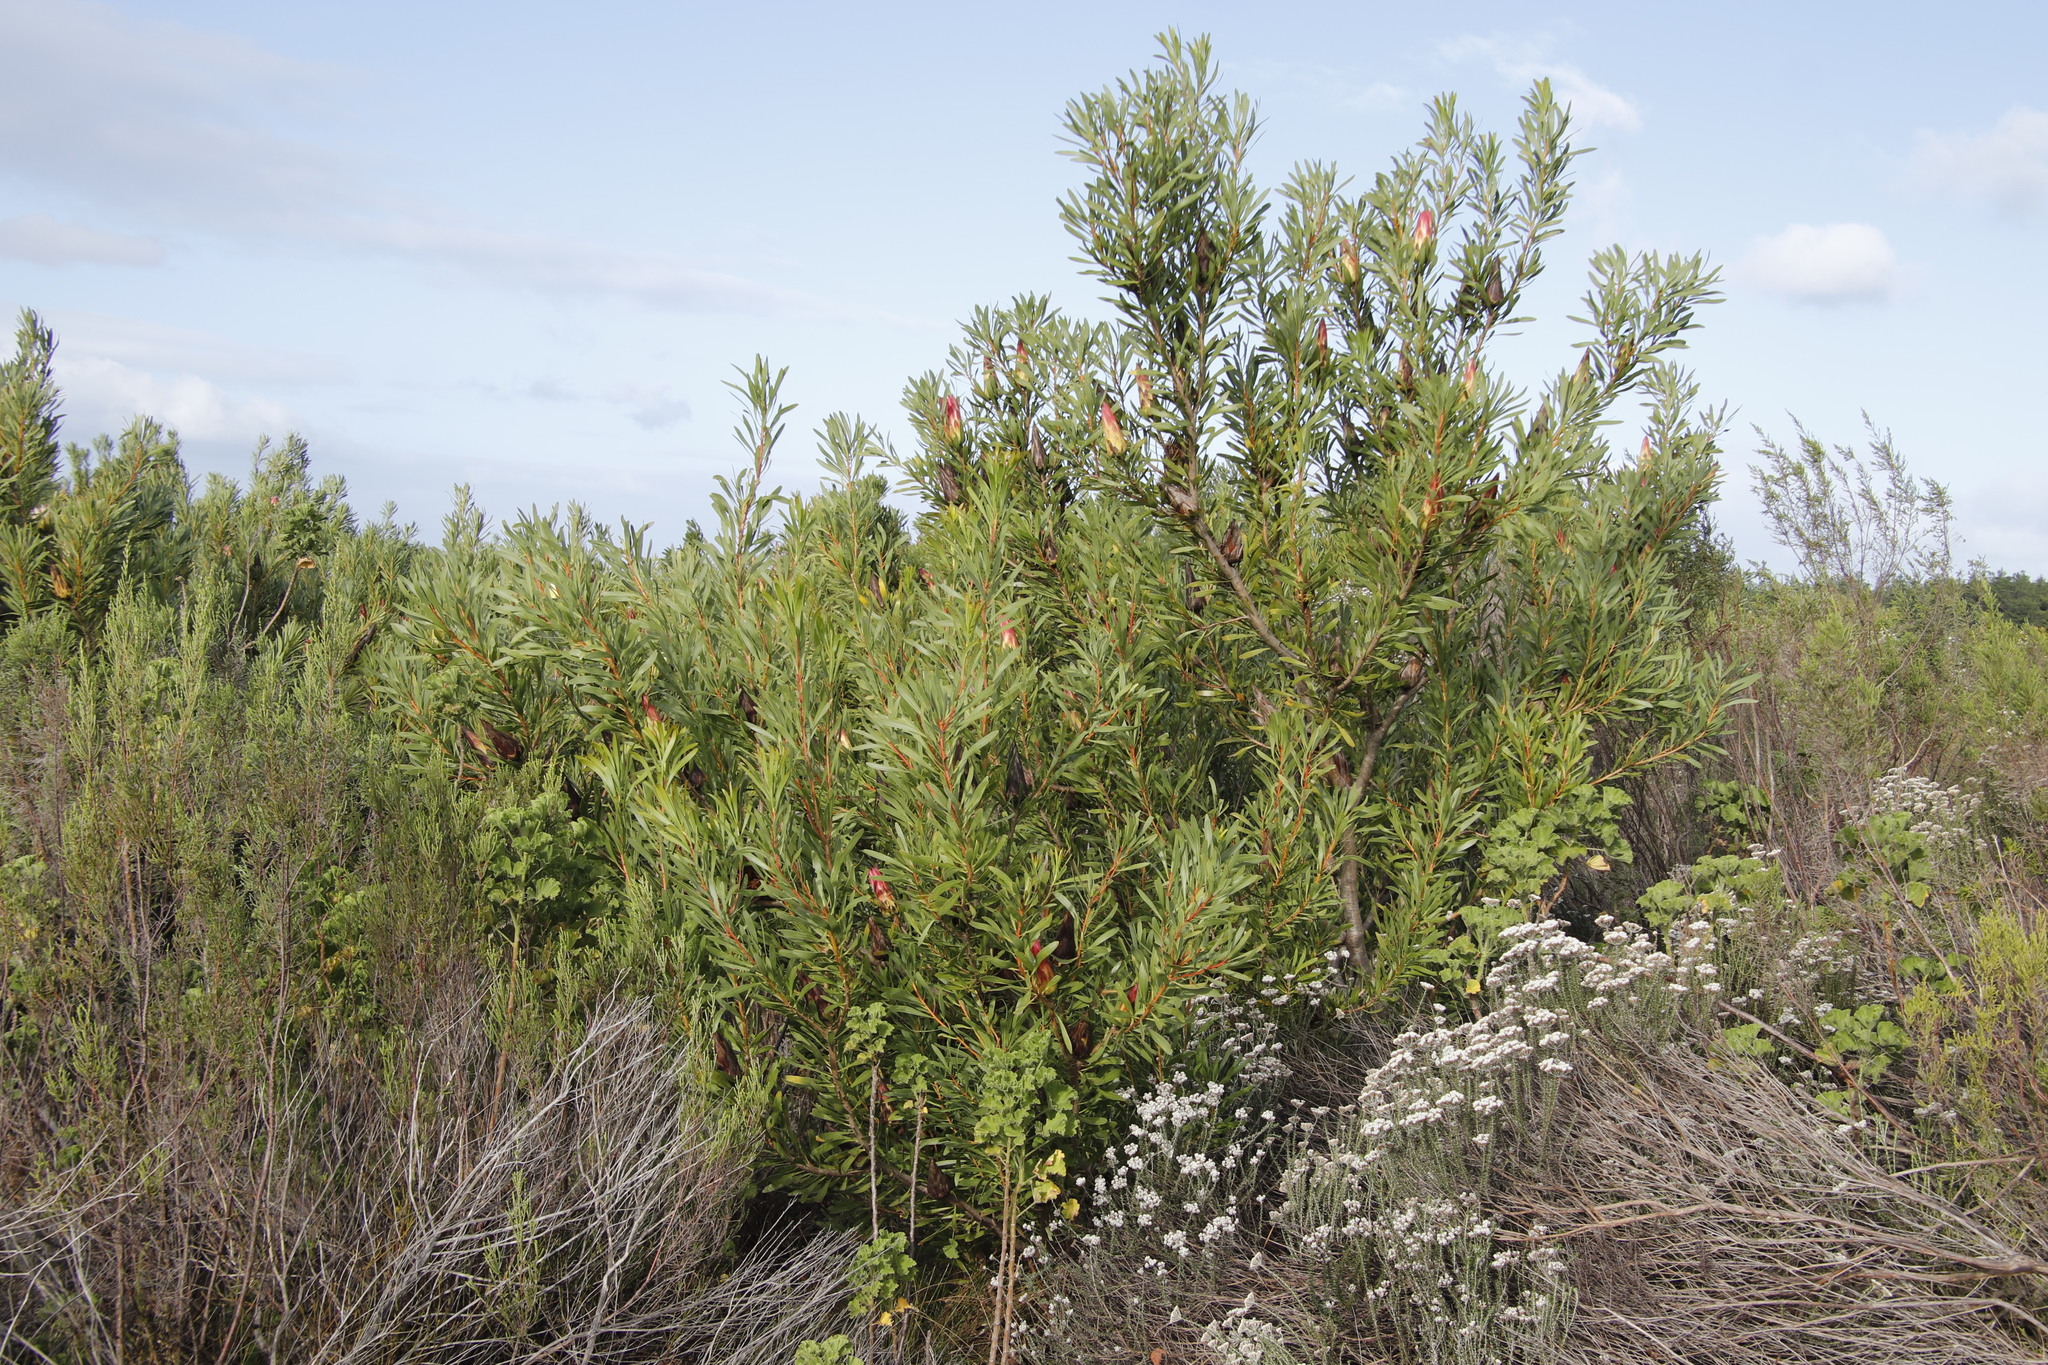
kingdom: Plantae
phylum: Tracheophyta
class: Magnoliopsida
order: Proteales
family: Proteaceae
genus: Protea
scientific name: Protea repens
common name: Sugarbush
